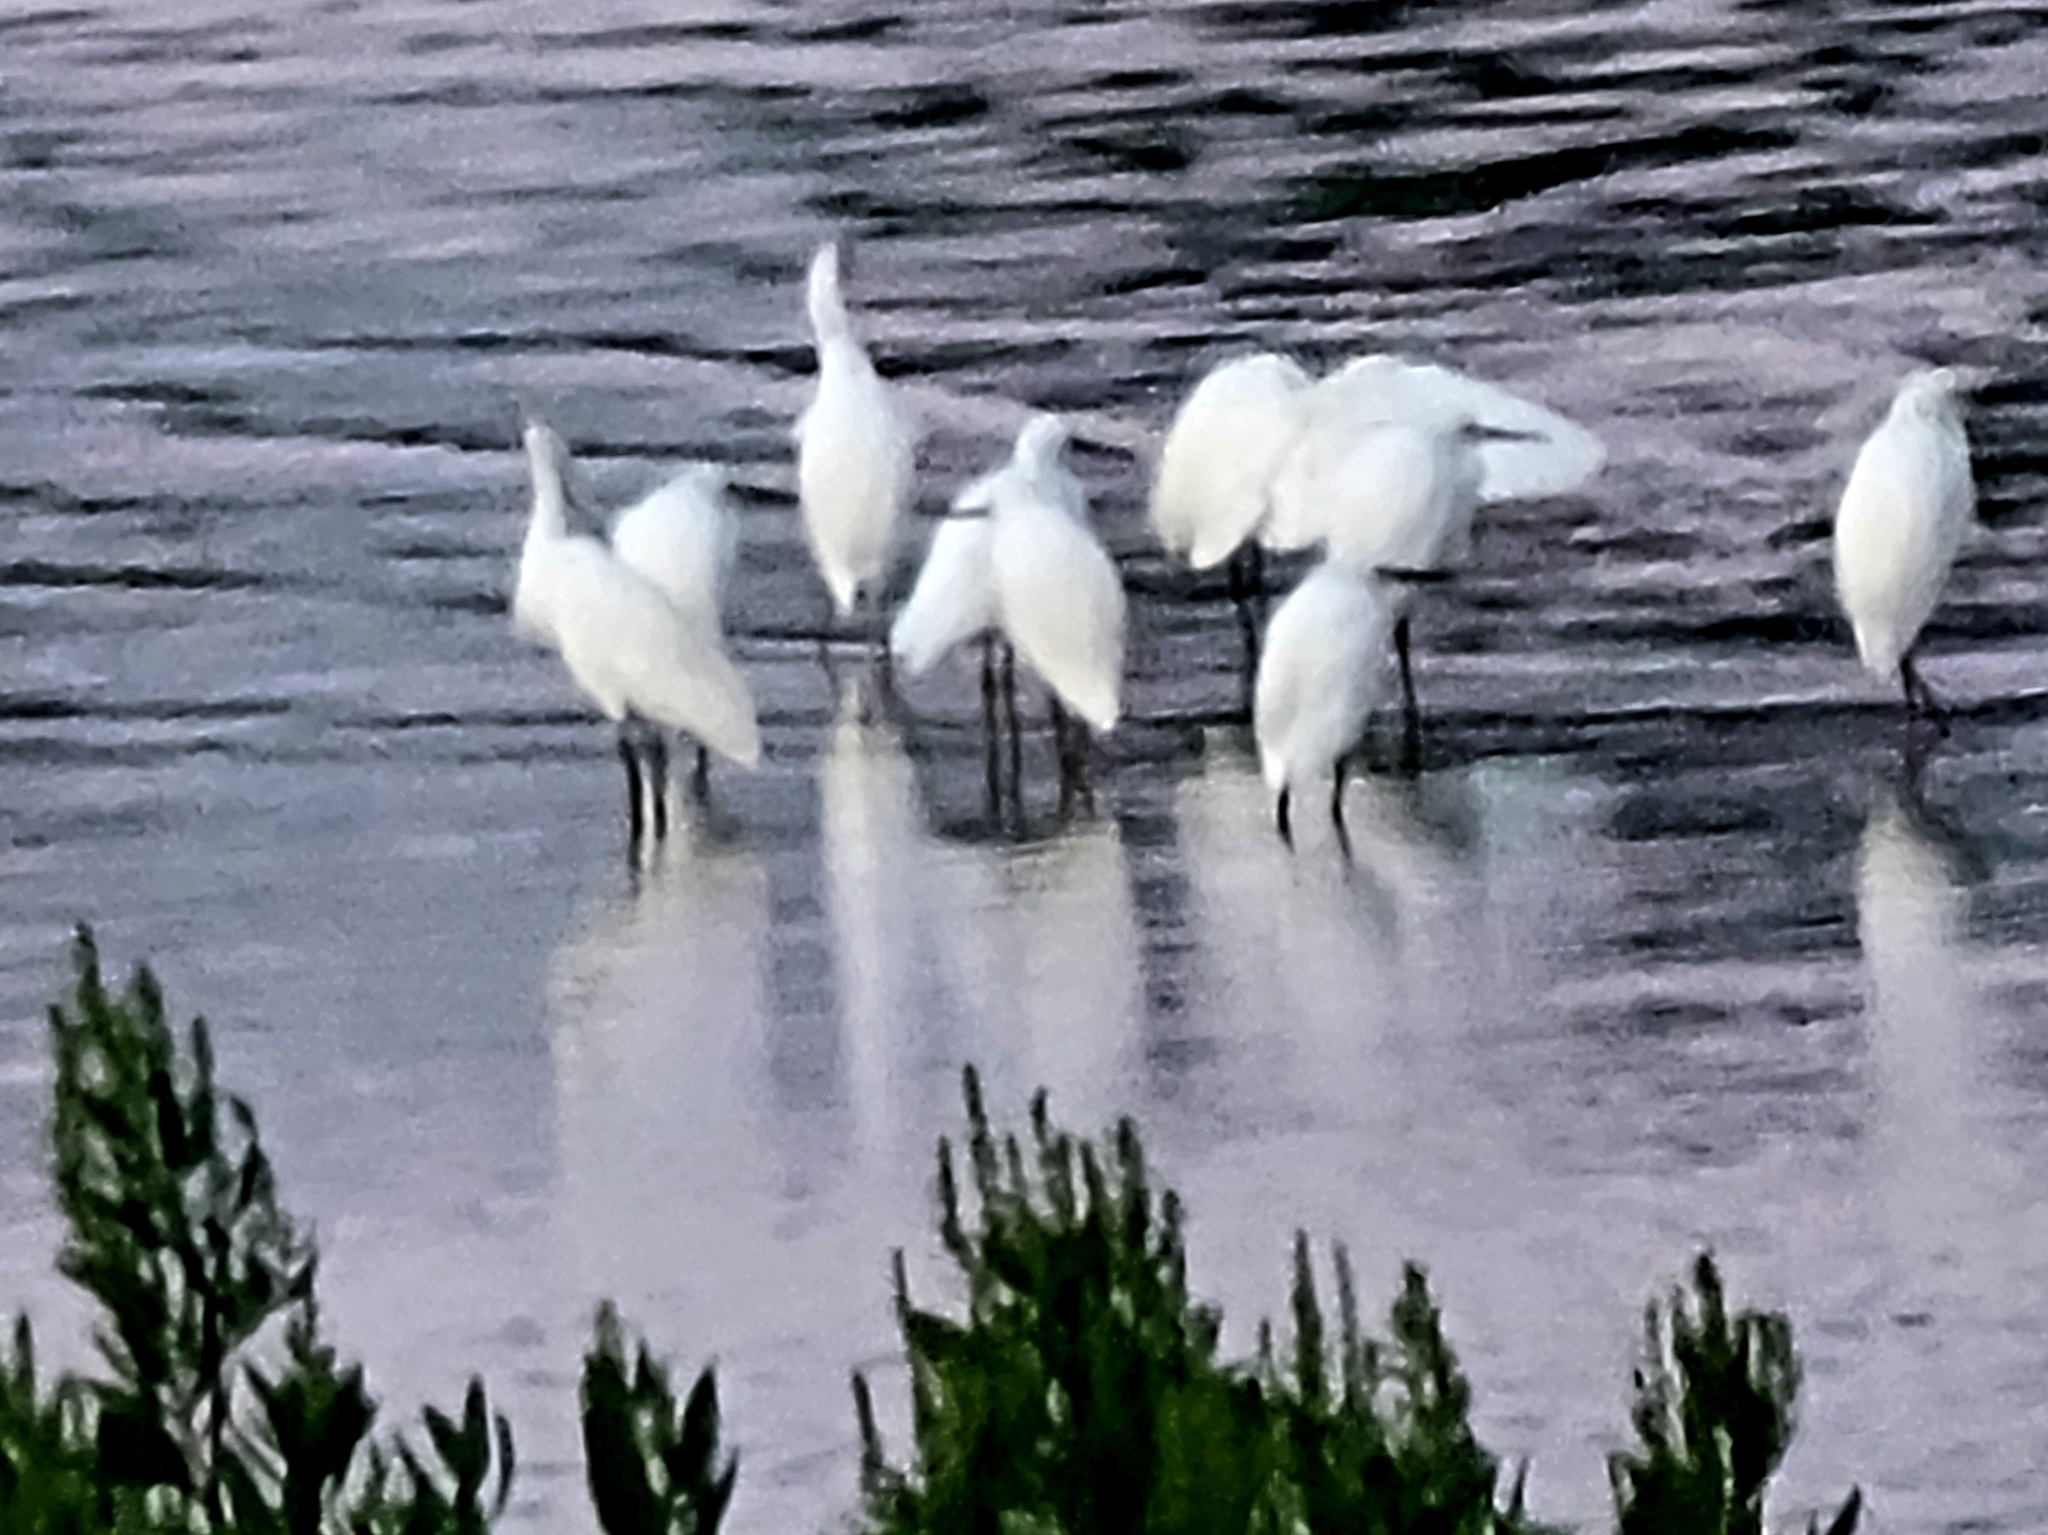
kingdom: Animalia
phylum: Chordata
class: Aves
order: Pelecaniformes
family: Ardeidae
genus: Egretta
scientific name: Egretta thula
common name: Snowy egret
